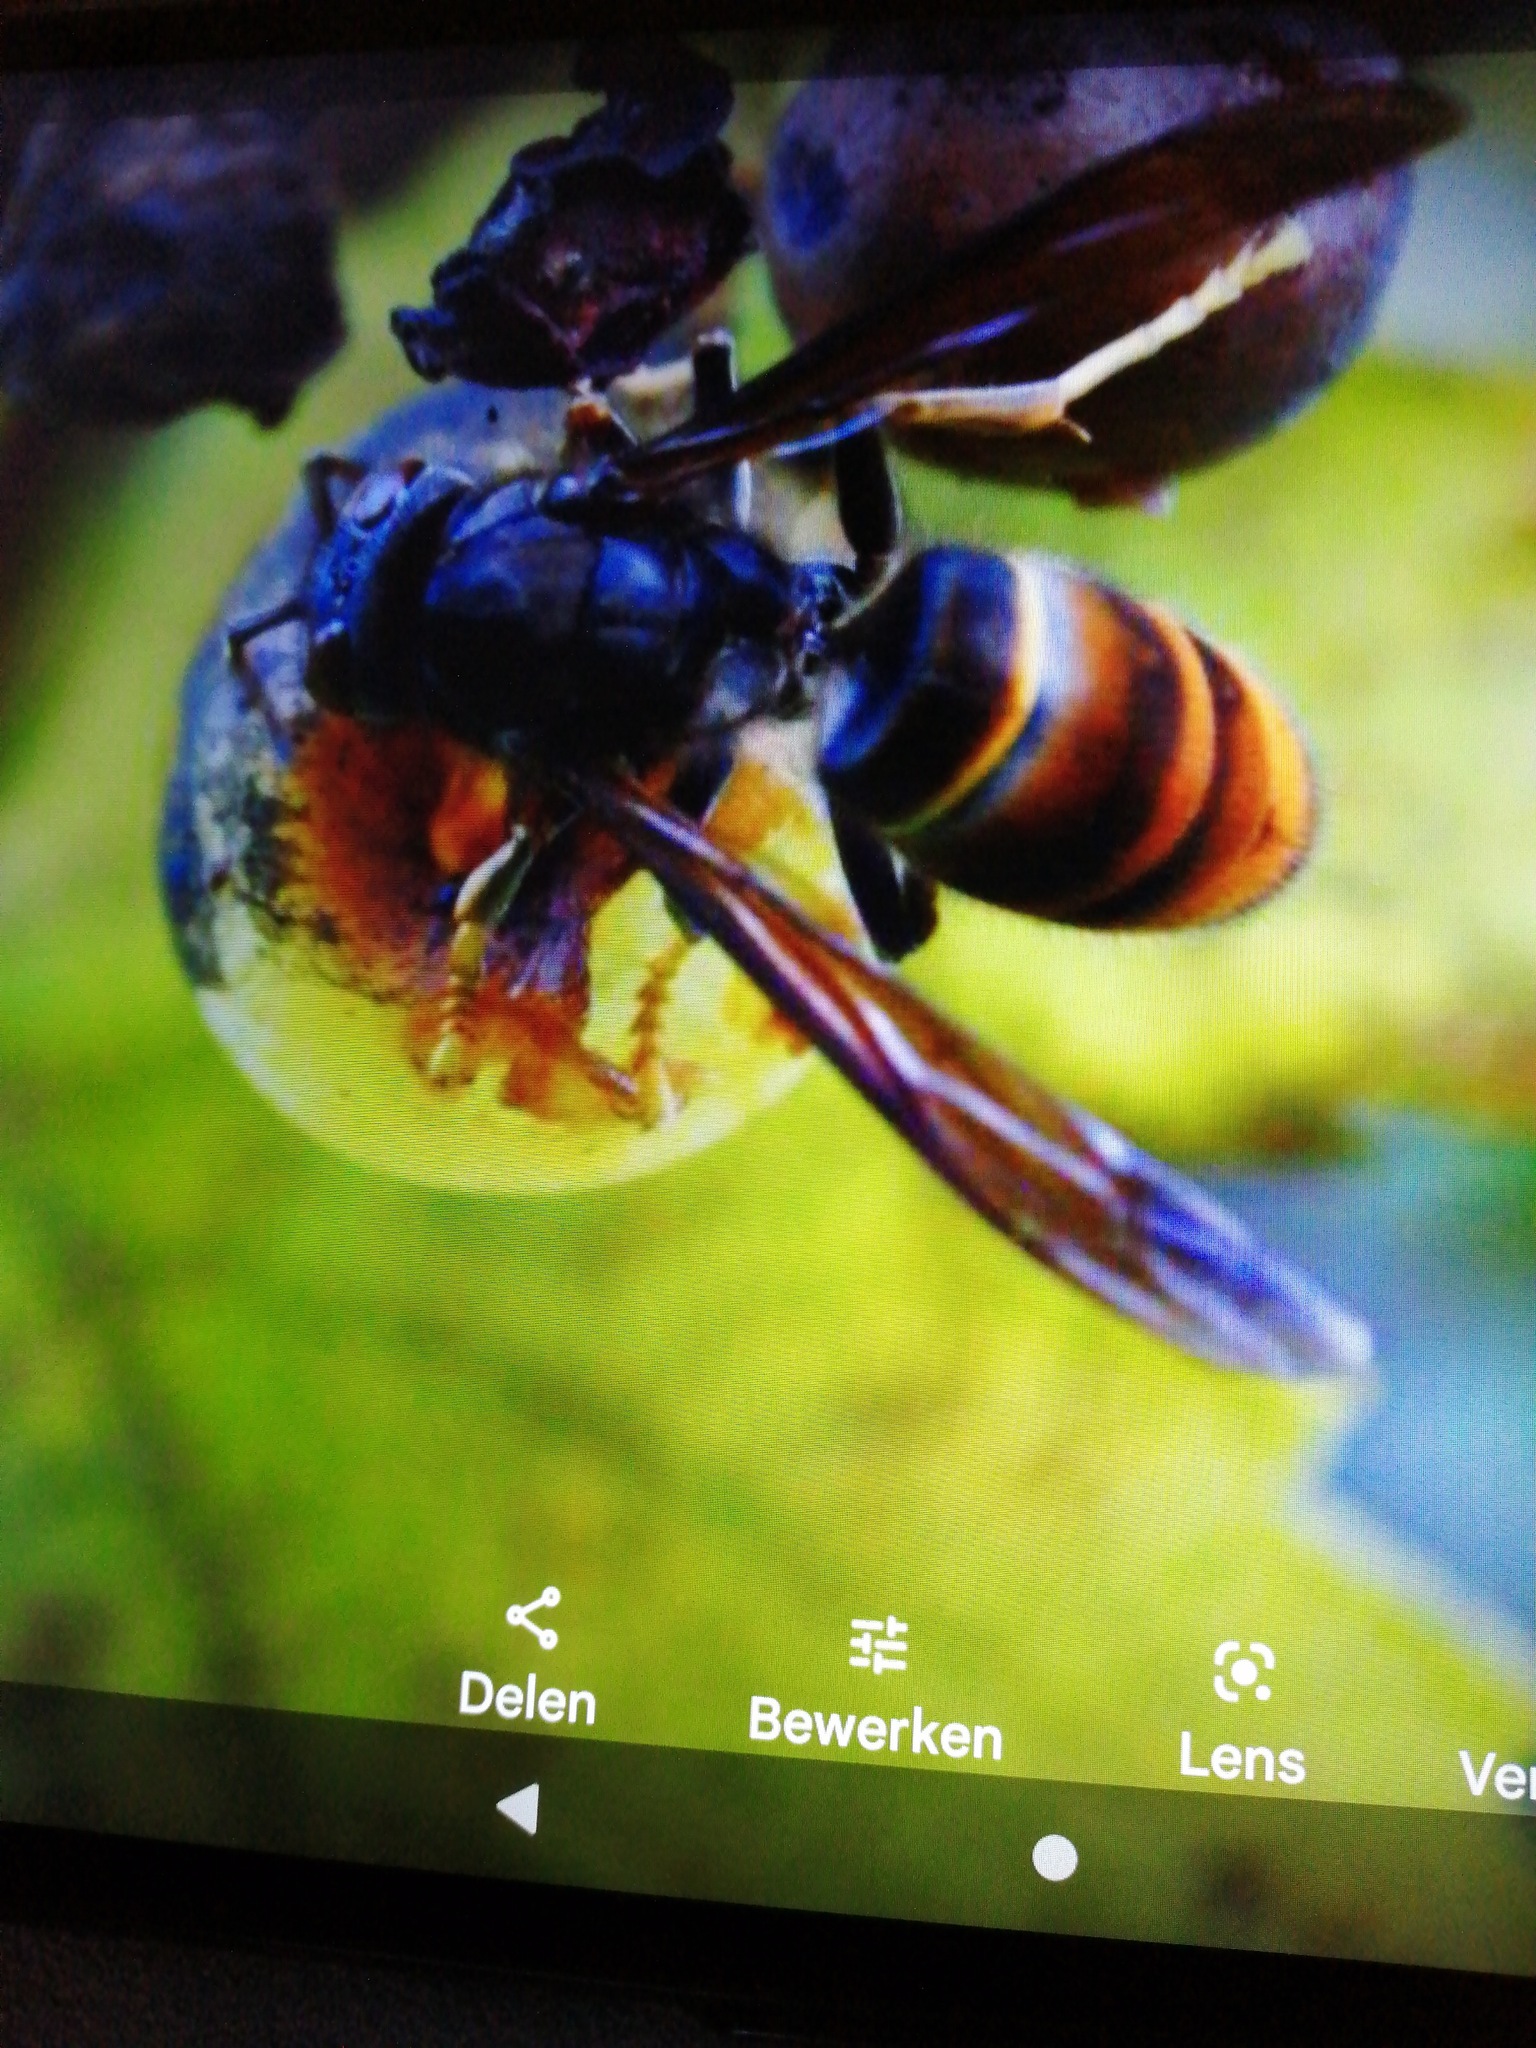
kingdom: Animalia
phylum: Arthropoda
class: Insecta
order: Hymenoptera
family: Vespidae
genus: Vespa
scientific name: Vespa velutina
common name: Asian hornet
